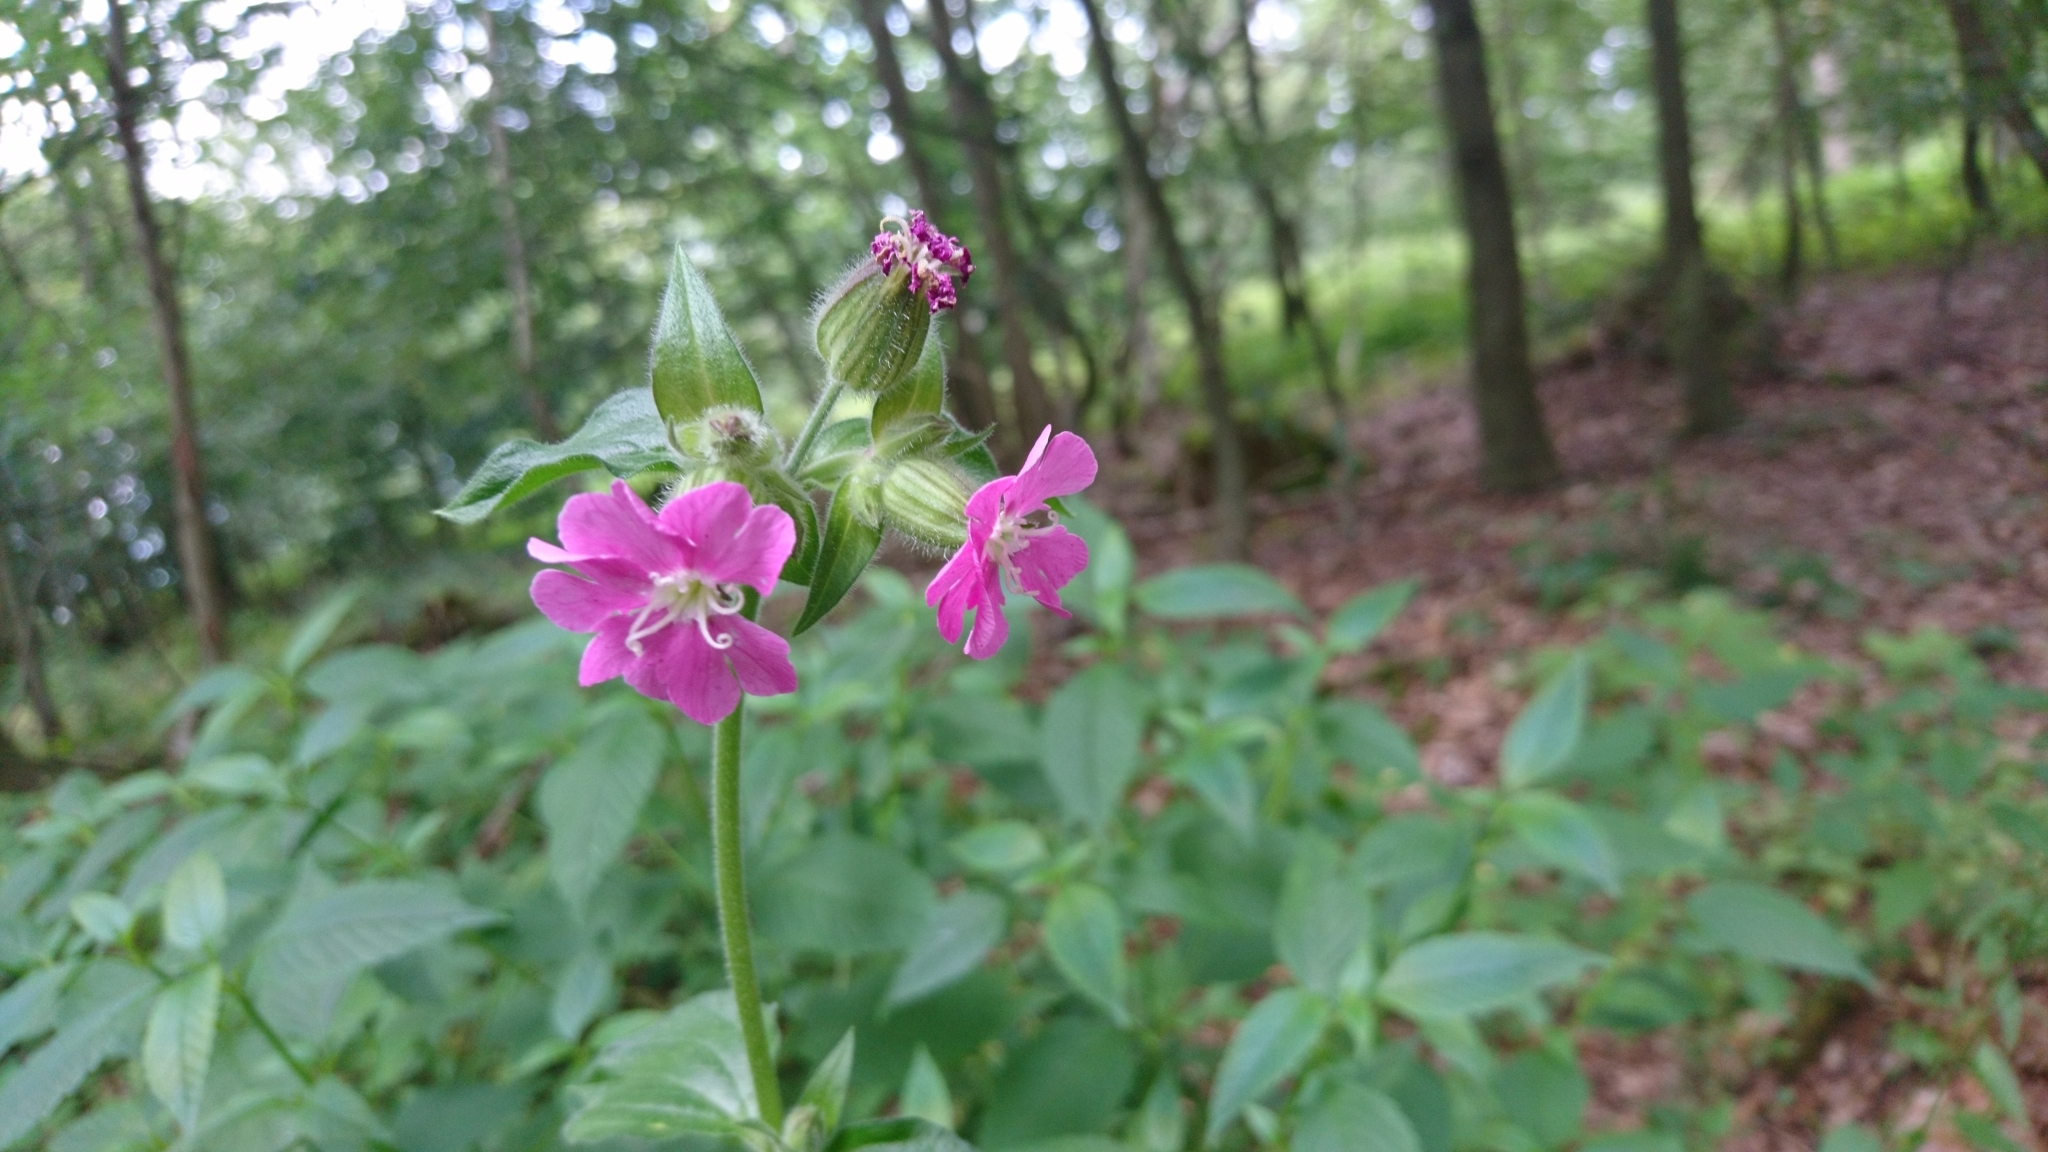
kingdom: Plantae
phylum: Tracheophyta
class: Magnoliopsida
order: Caryophyllales
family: Caryophyllaceae
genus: Silene
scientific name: Silene dioica
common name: Red campion
